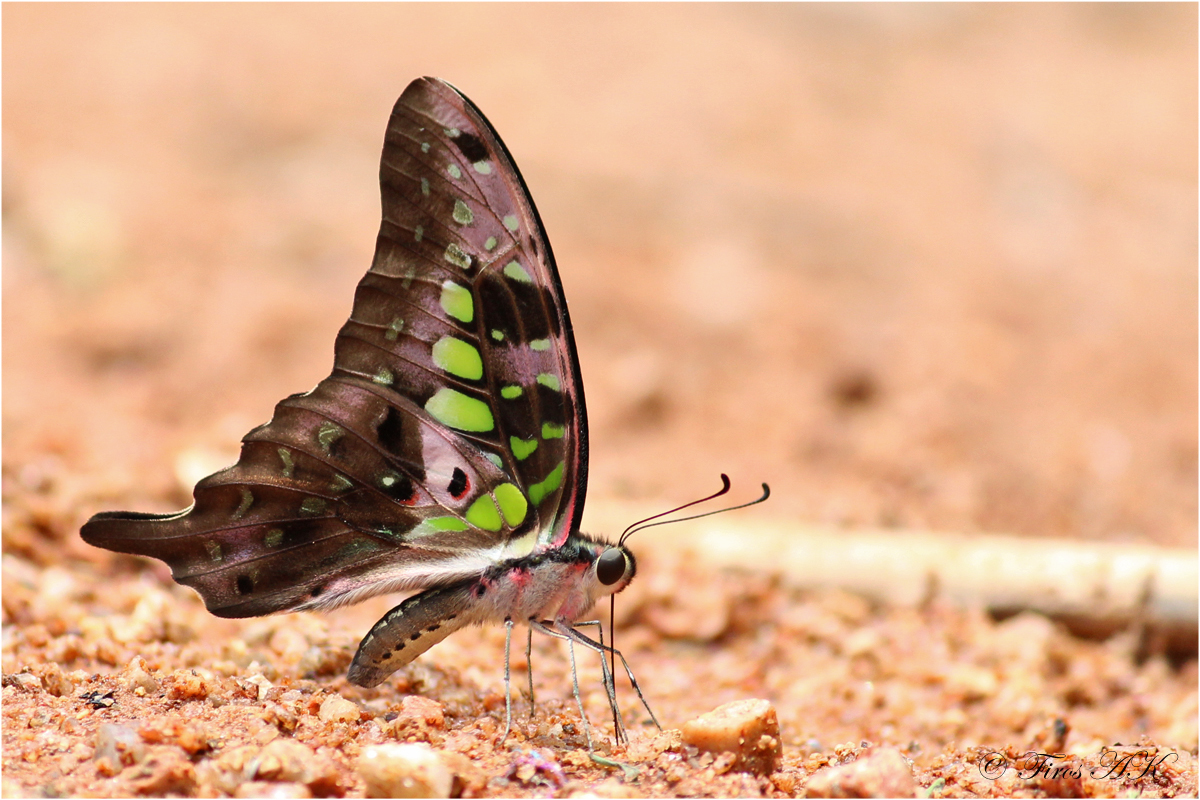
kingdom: Animalia
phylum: Arthropoda
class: Insecta
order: Lepidoptera
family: Papilionidae
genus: Graphium
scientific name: Graphium agamemnon
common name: Tailed jay
